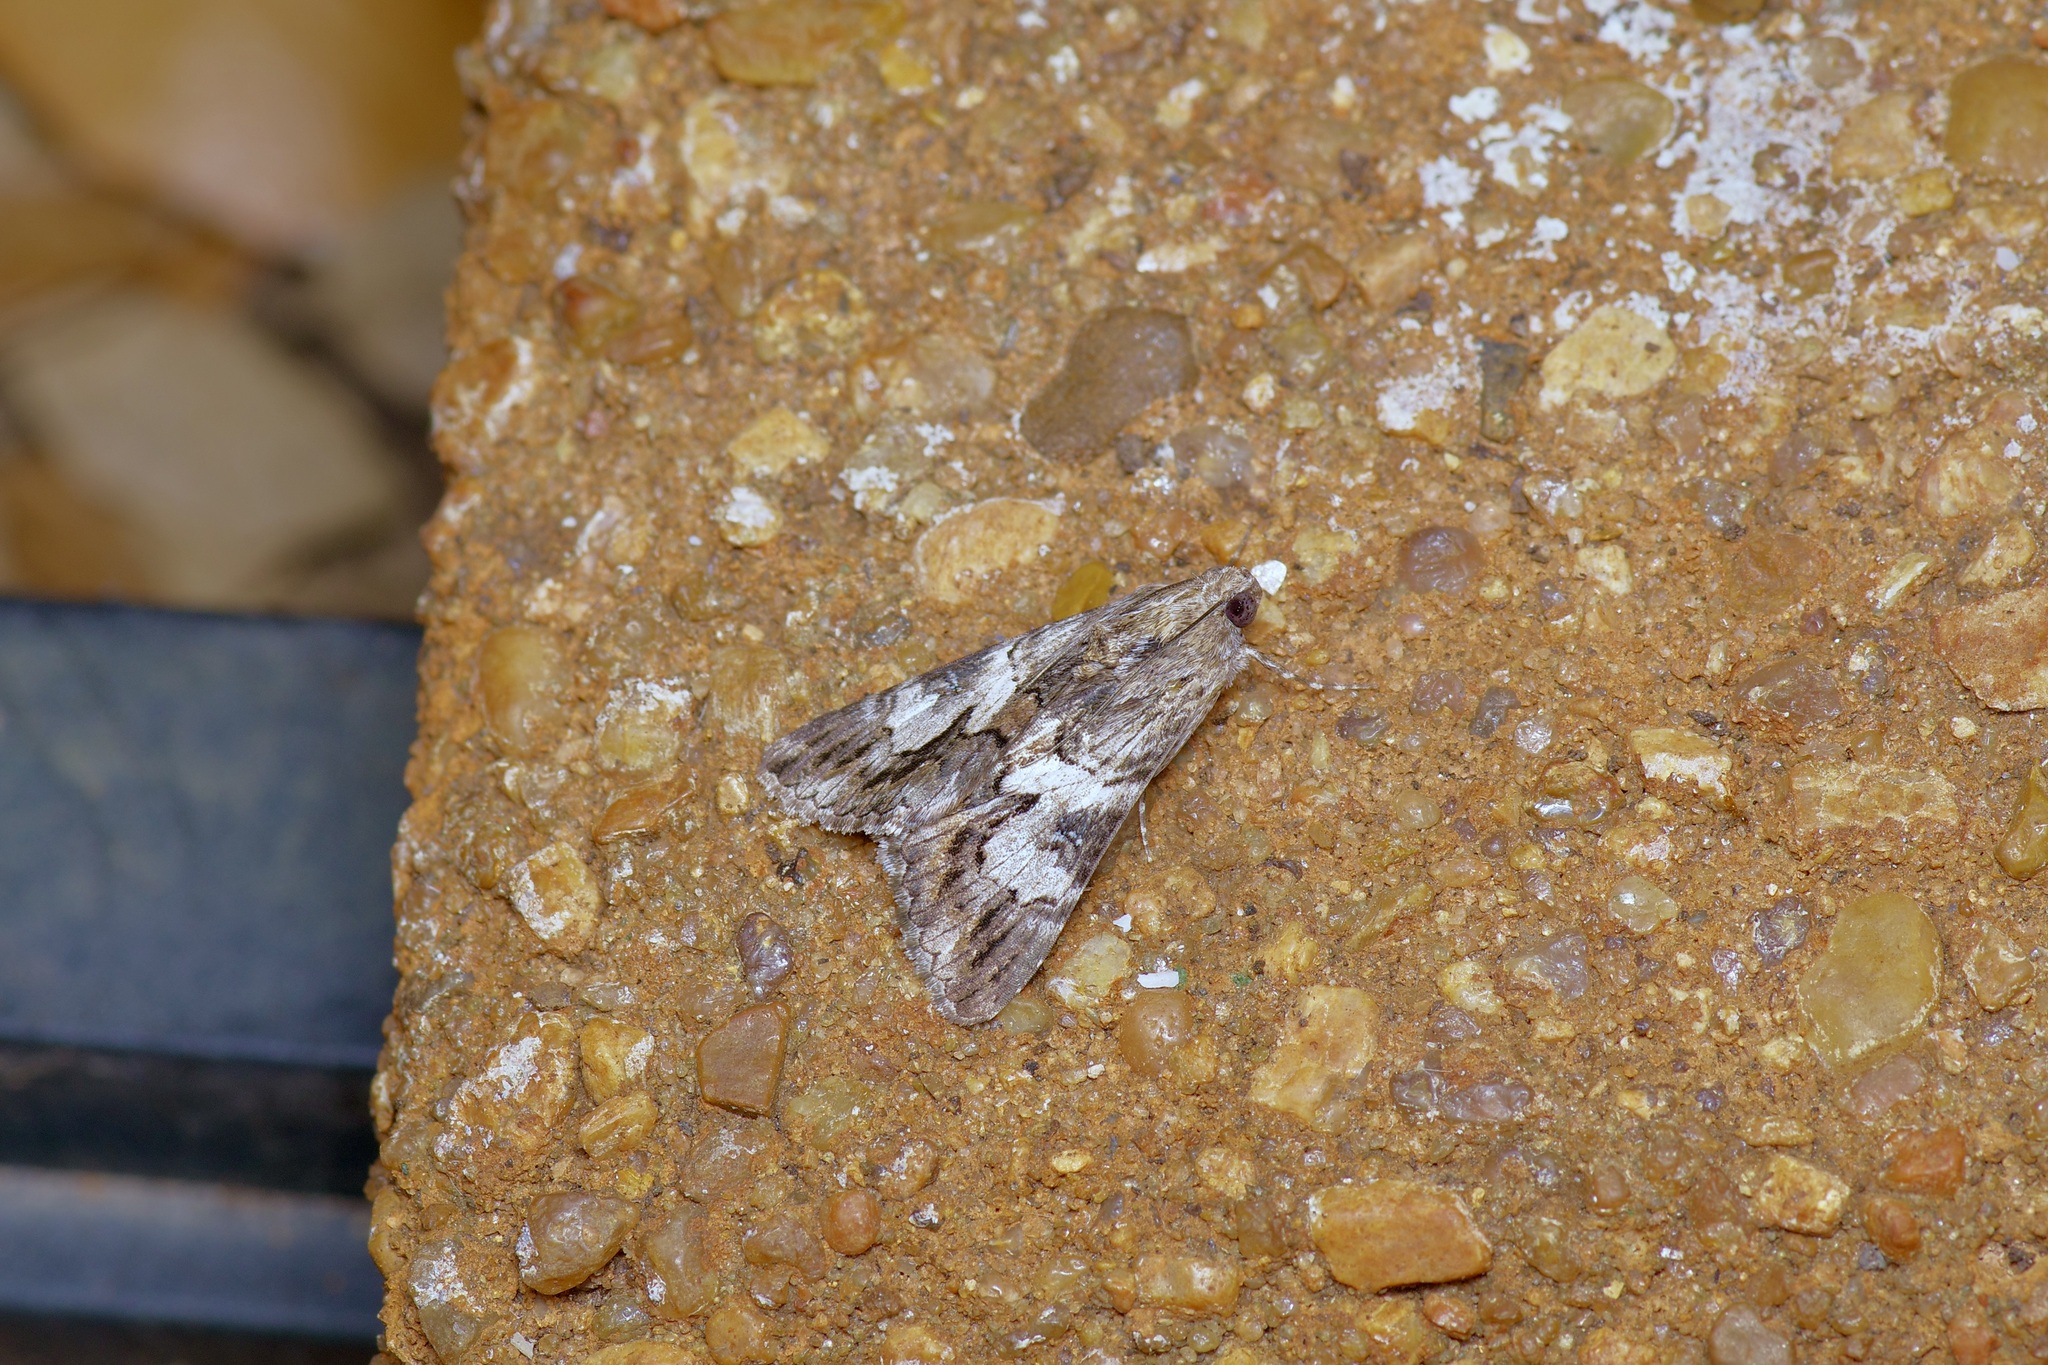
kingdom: Animalia
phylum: Arthropoda
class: Insecta
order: Lepidoptera
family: Erebidae
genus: Melipotis
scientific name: Melipotis jucunda
